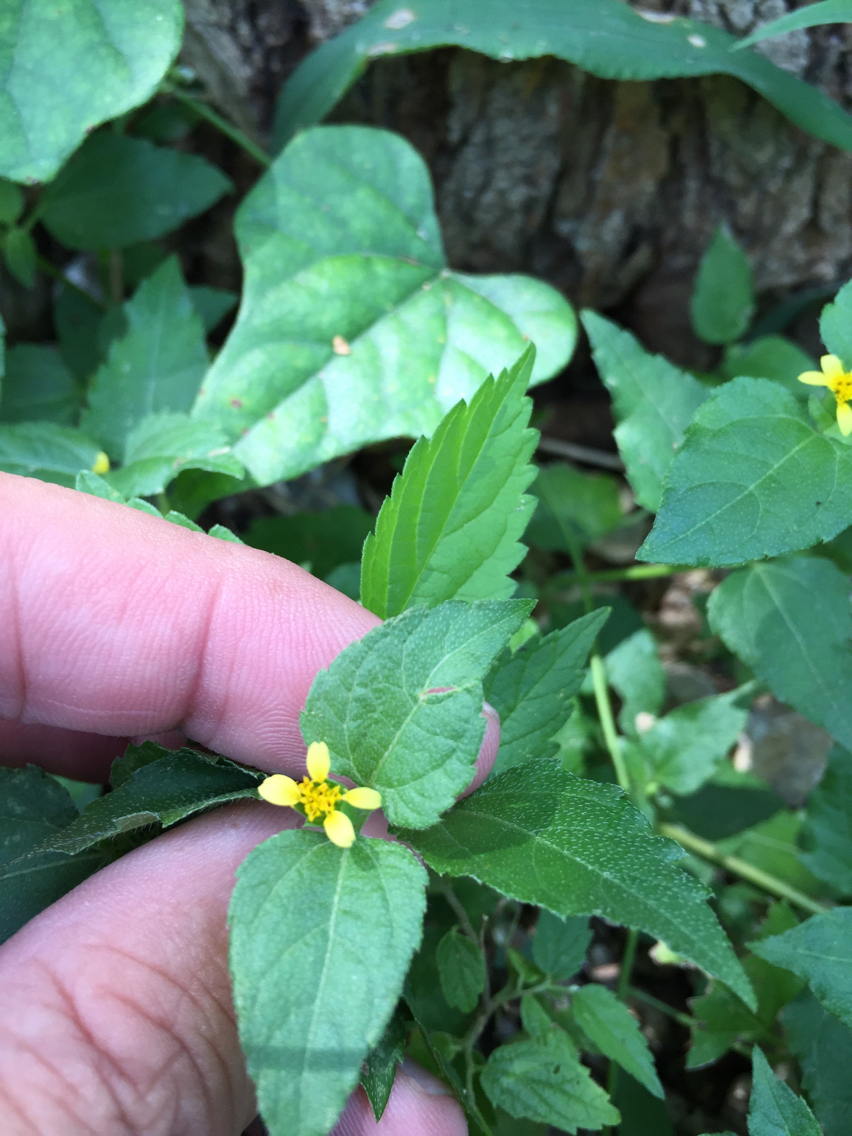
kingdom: Plantae
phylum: Tracheophyta
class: Magnoliopsida
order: Asterales
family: Asteraceae
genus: Calyptocarpus
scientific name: Calyptocarpus vialis
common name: Straggler daisy
